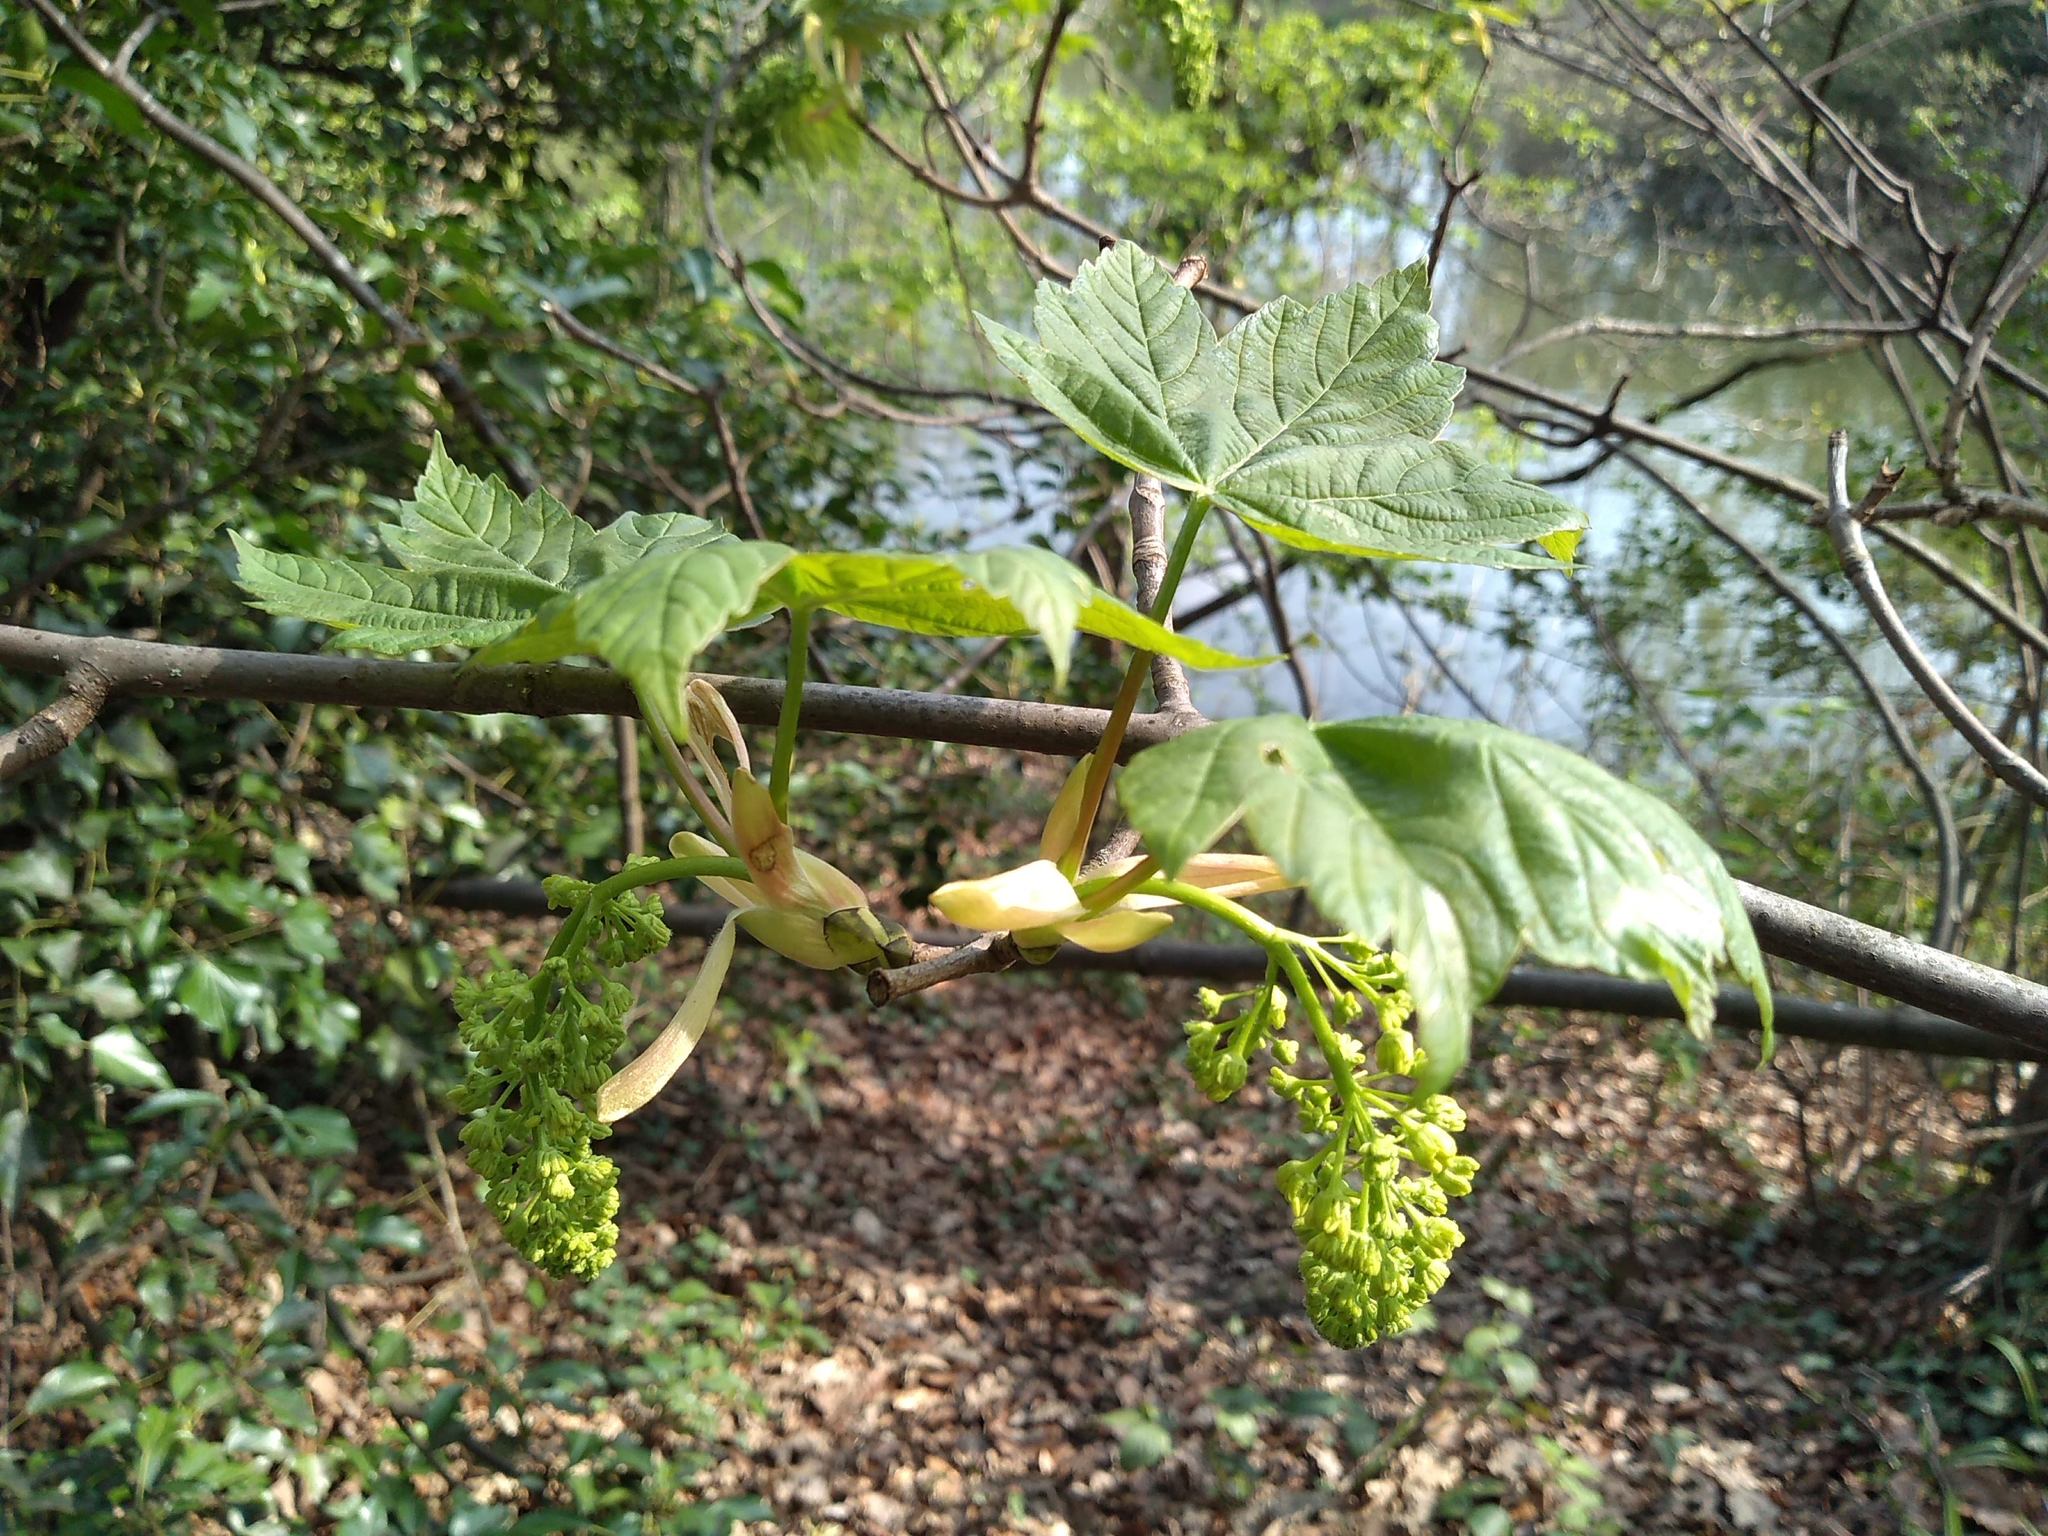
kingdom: Plantae
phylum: Tracheophyta
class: Magnoliopsida
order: Sapindales
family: Sapindaceae
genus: Acer
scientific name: Acer pseudoplatanus
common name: Sycamore
